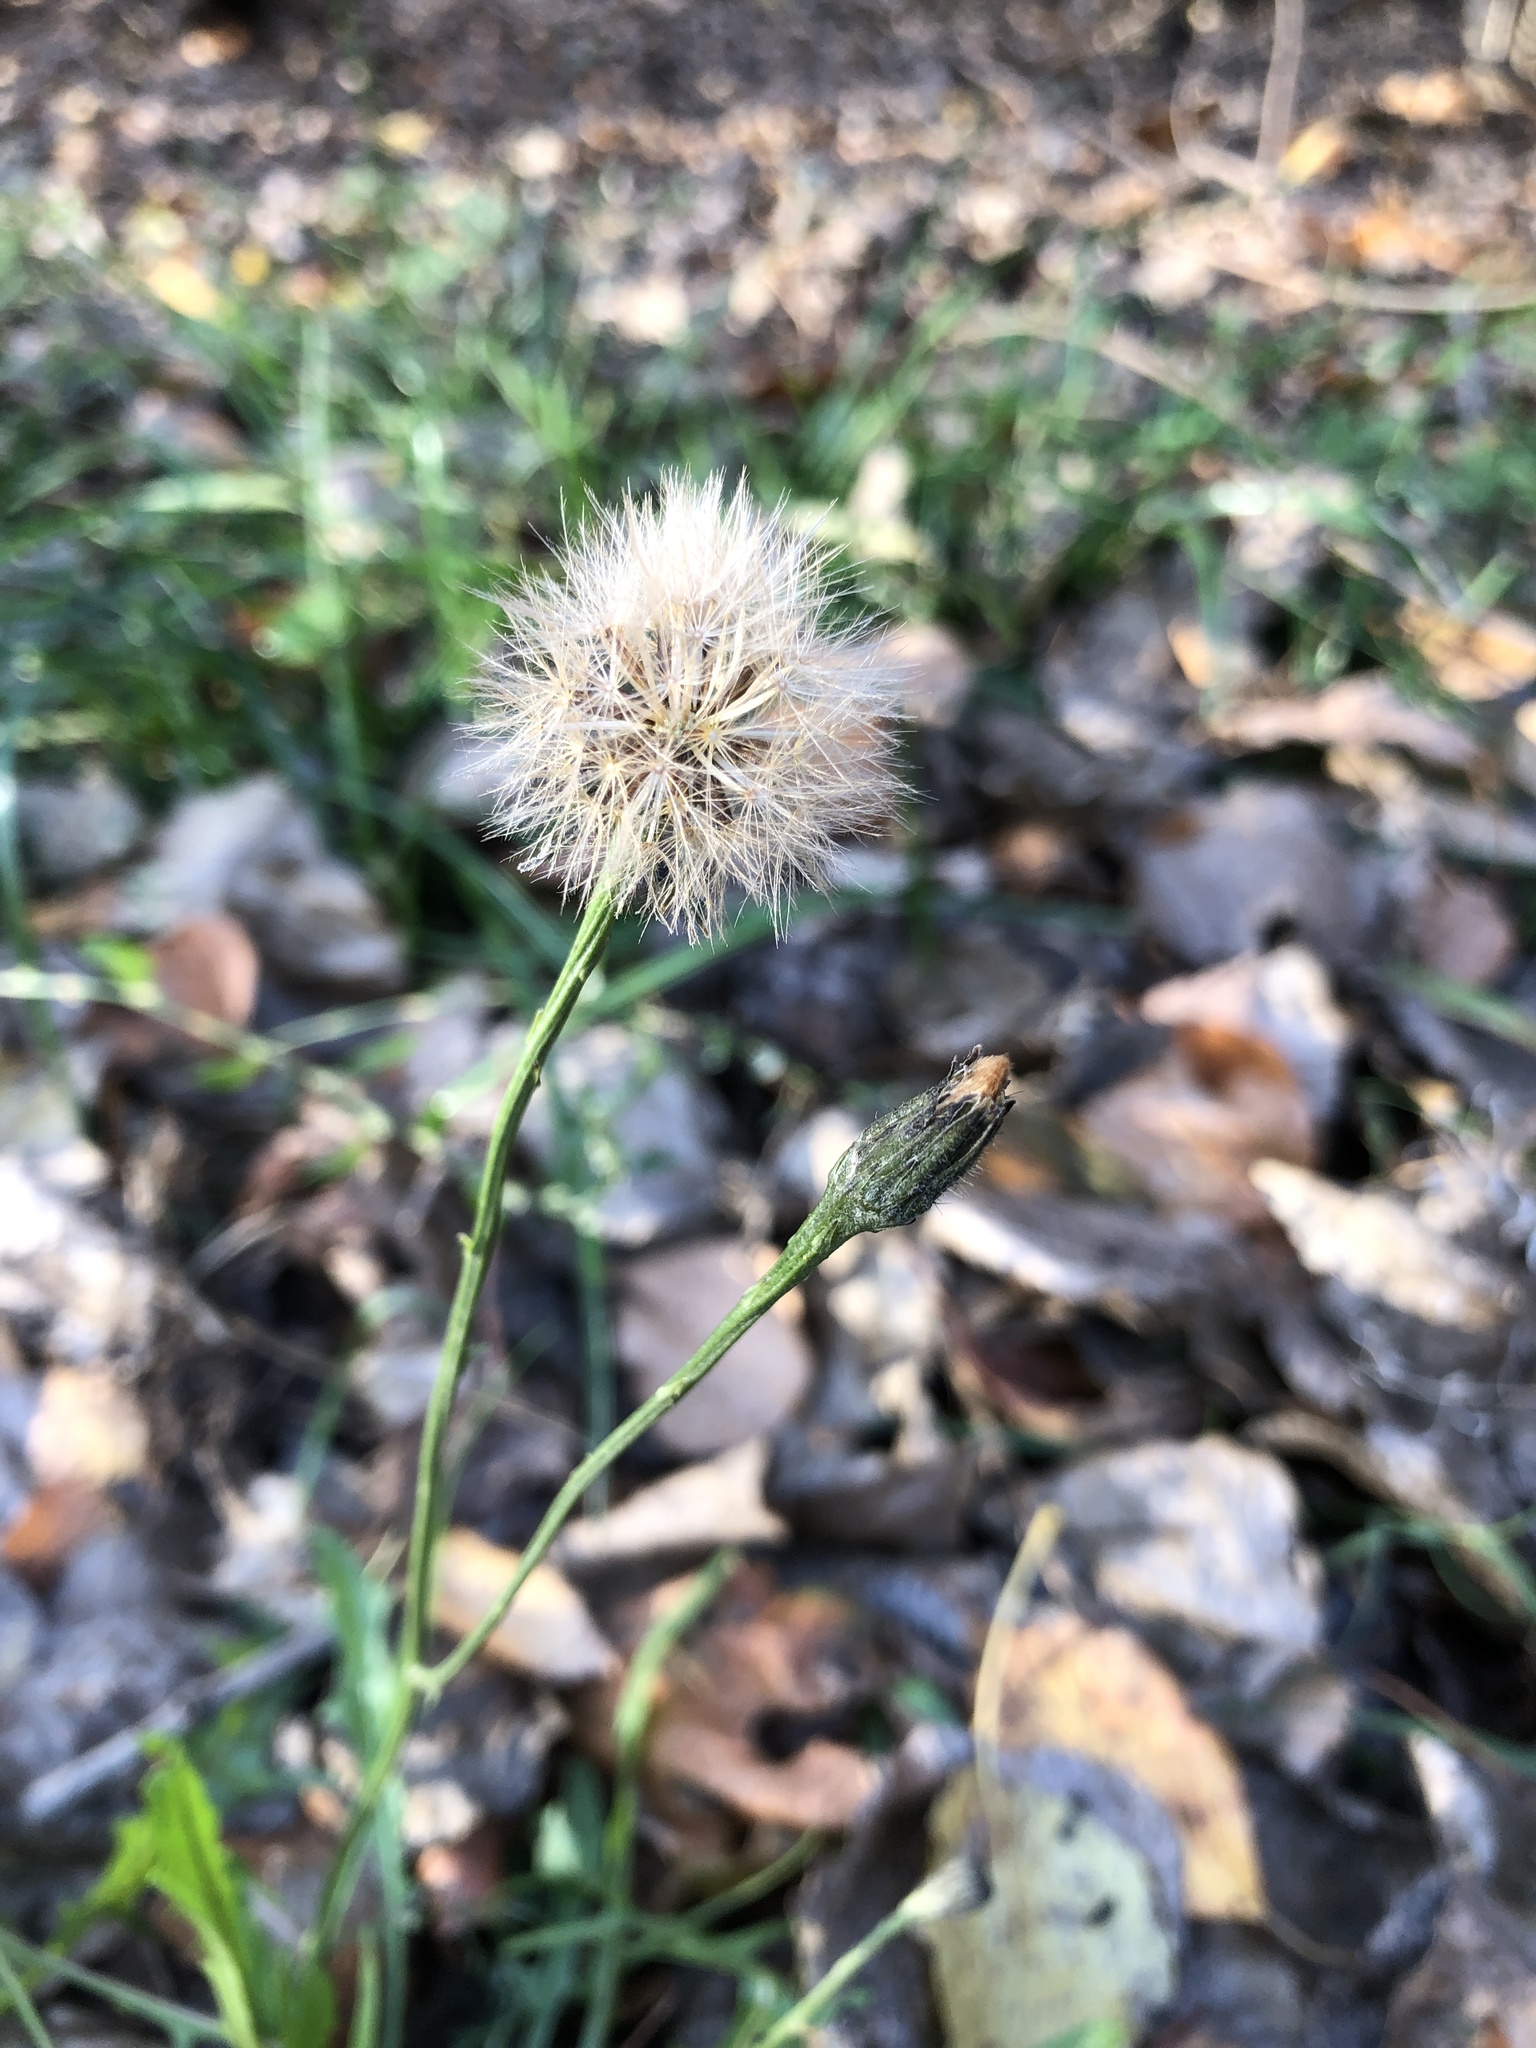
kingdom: Plantae
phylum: Tracheophyta
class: Magnoliopsida
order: Asterales
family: Asteraceae
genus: Scorzoneroides
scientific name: Scorzoneroides autumnalis
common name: Autumn hawkbit
